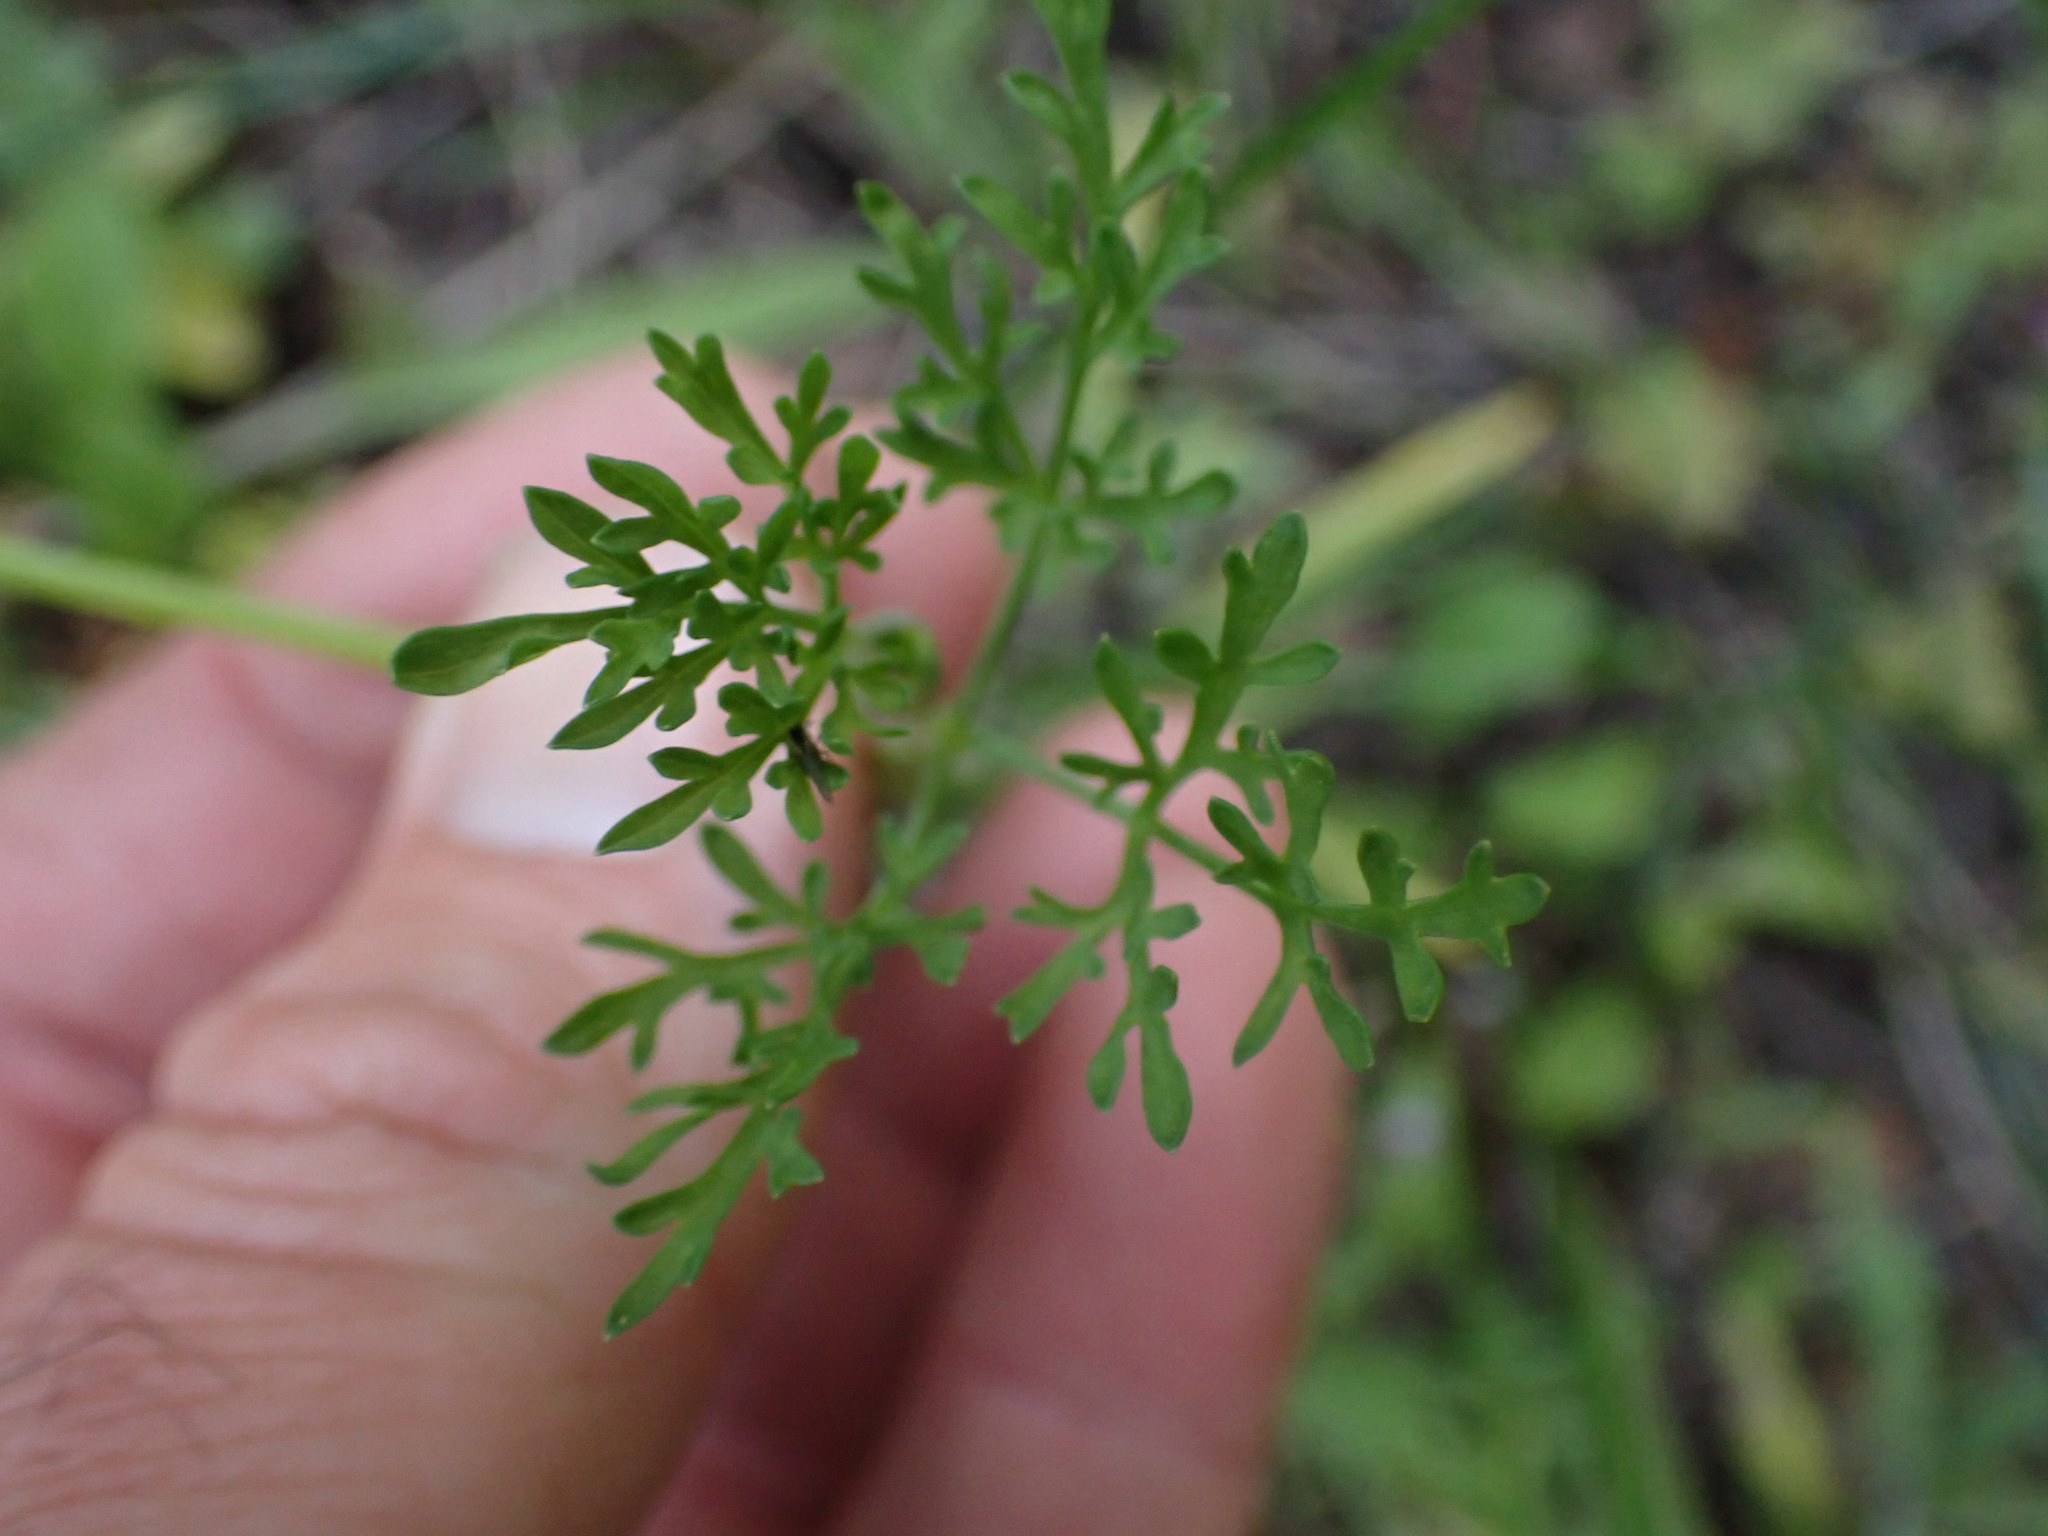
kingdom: Plantae
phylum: Tracheophyta
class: Magnoliopsida
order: Apiales
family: Apiaceae
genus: Lomatium
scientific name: Lomatium ambiguum
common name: Lacy lomatium
